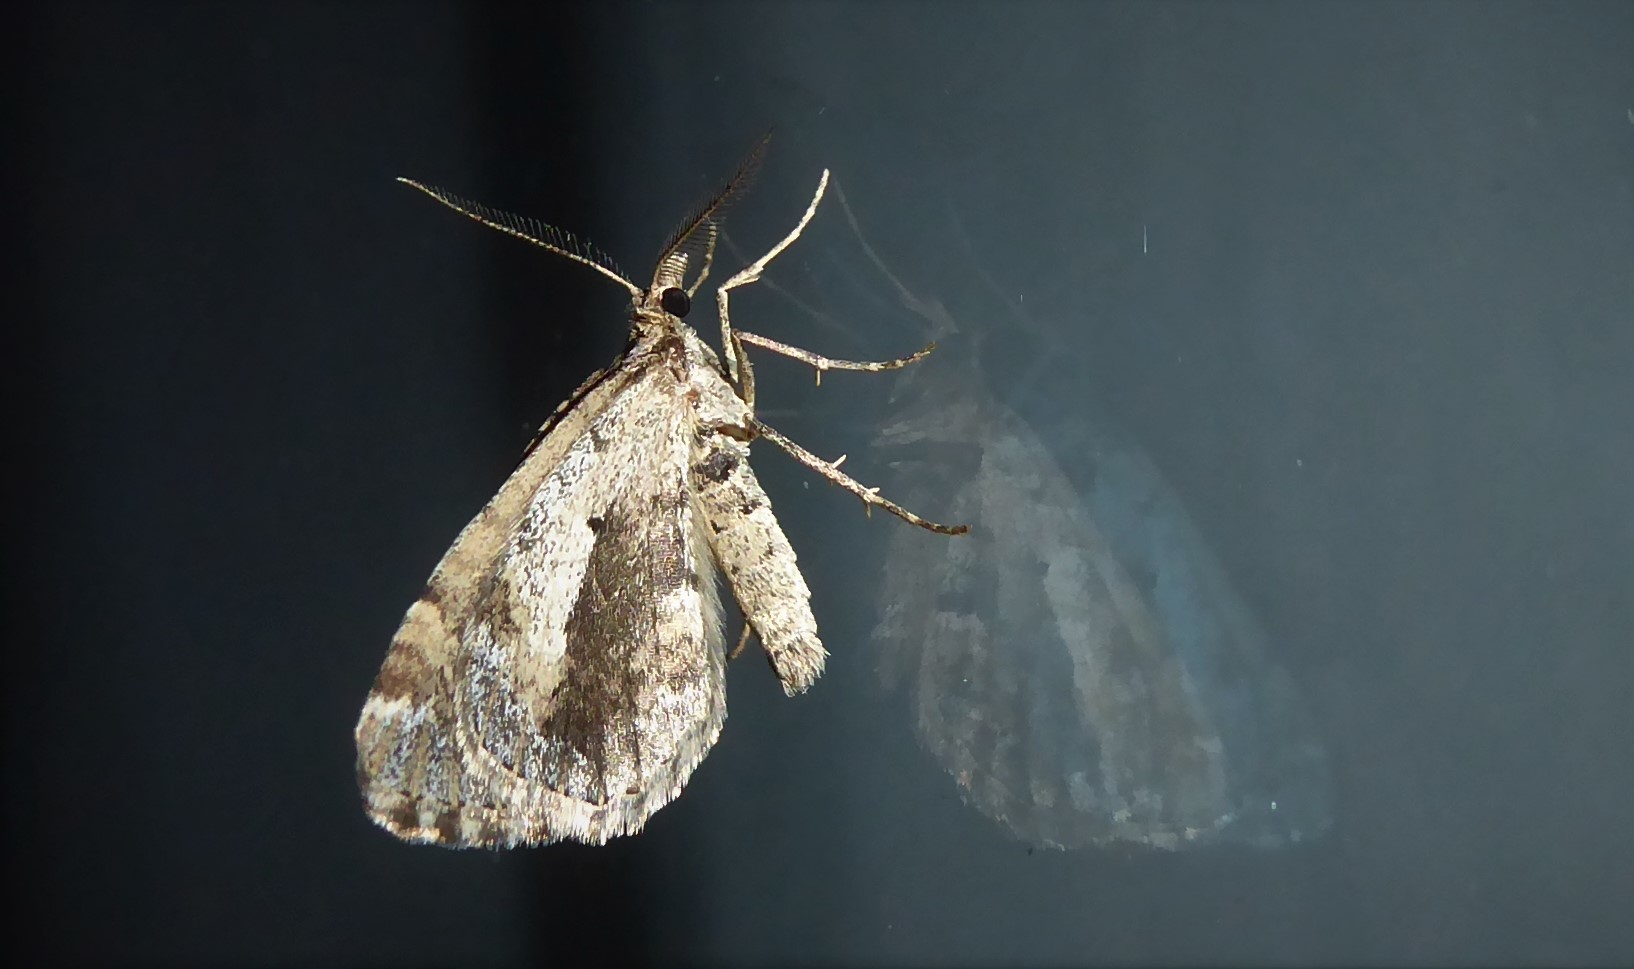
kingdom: Animalia
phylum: Arthropoda
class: Insecta
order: Lepidoptera
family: Geometridae
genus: Asaphodes
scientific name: Asaphodes aegrota
